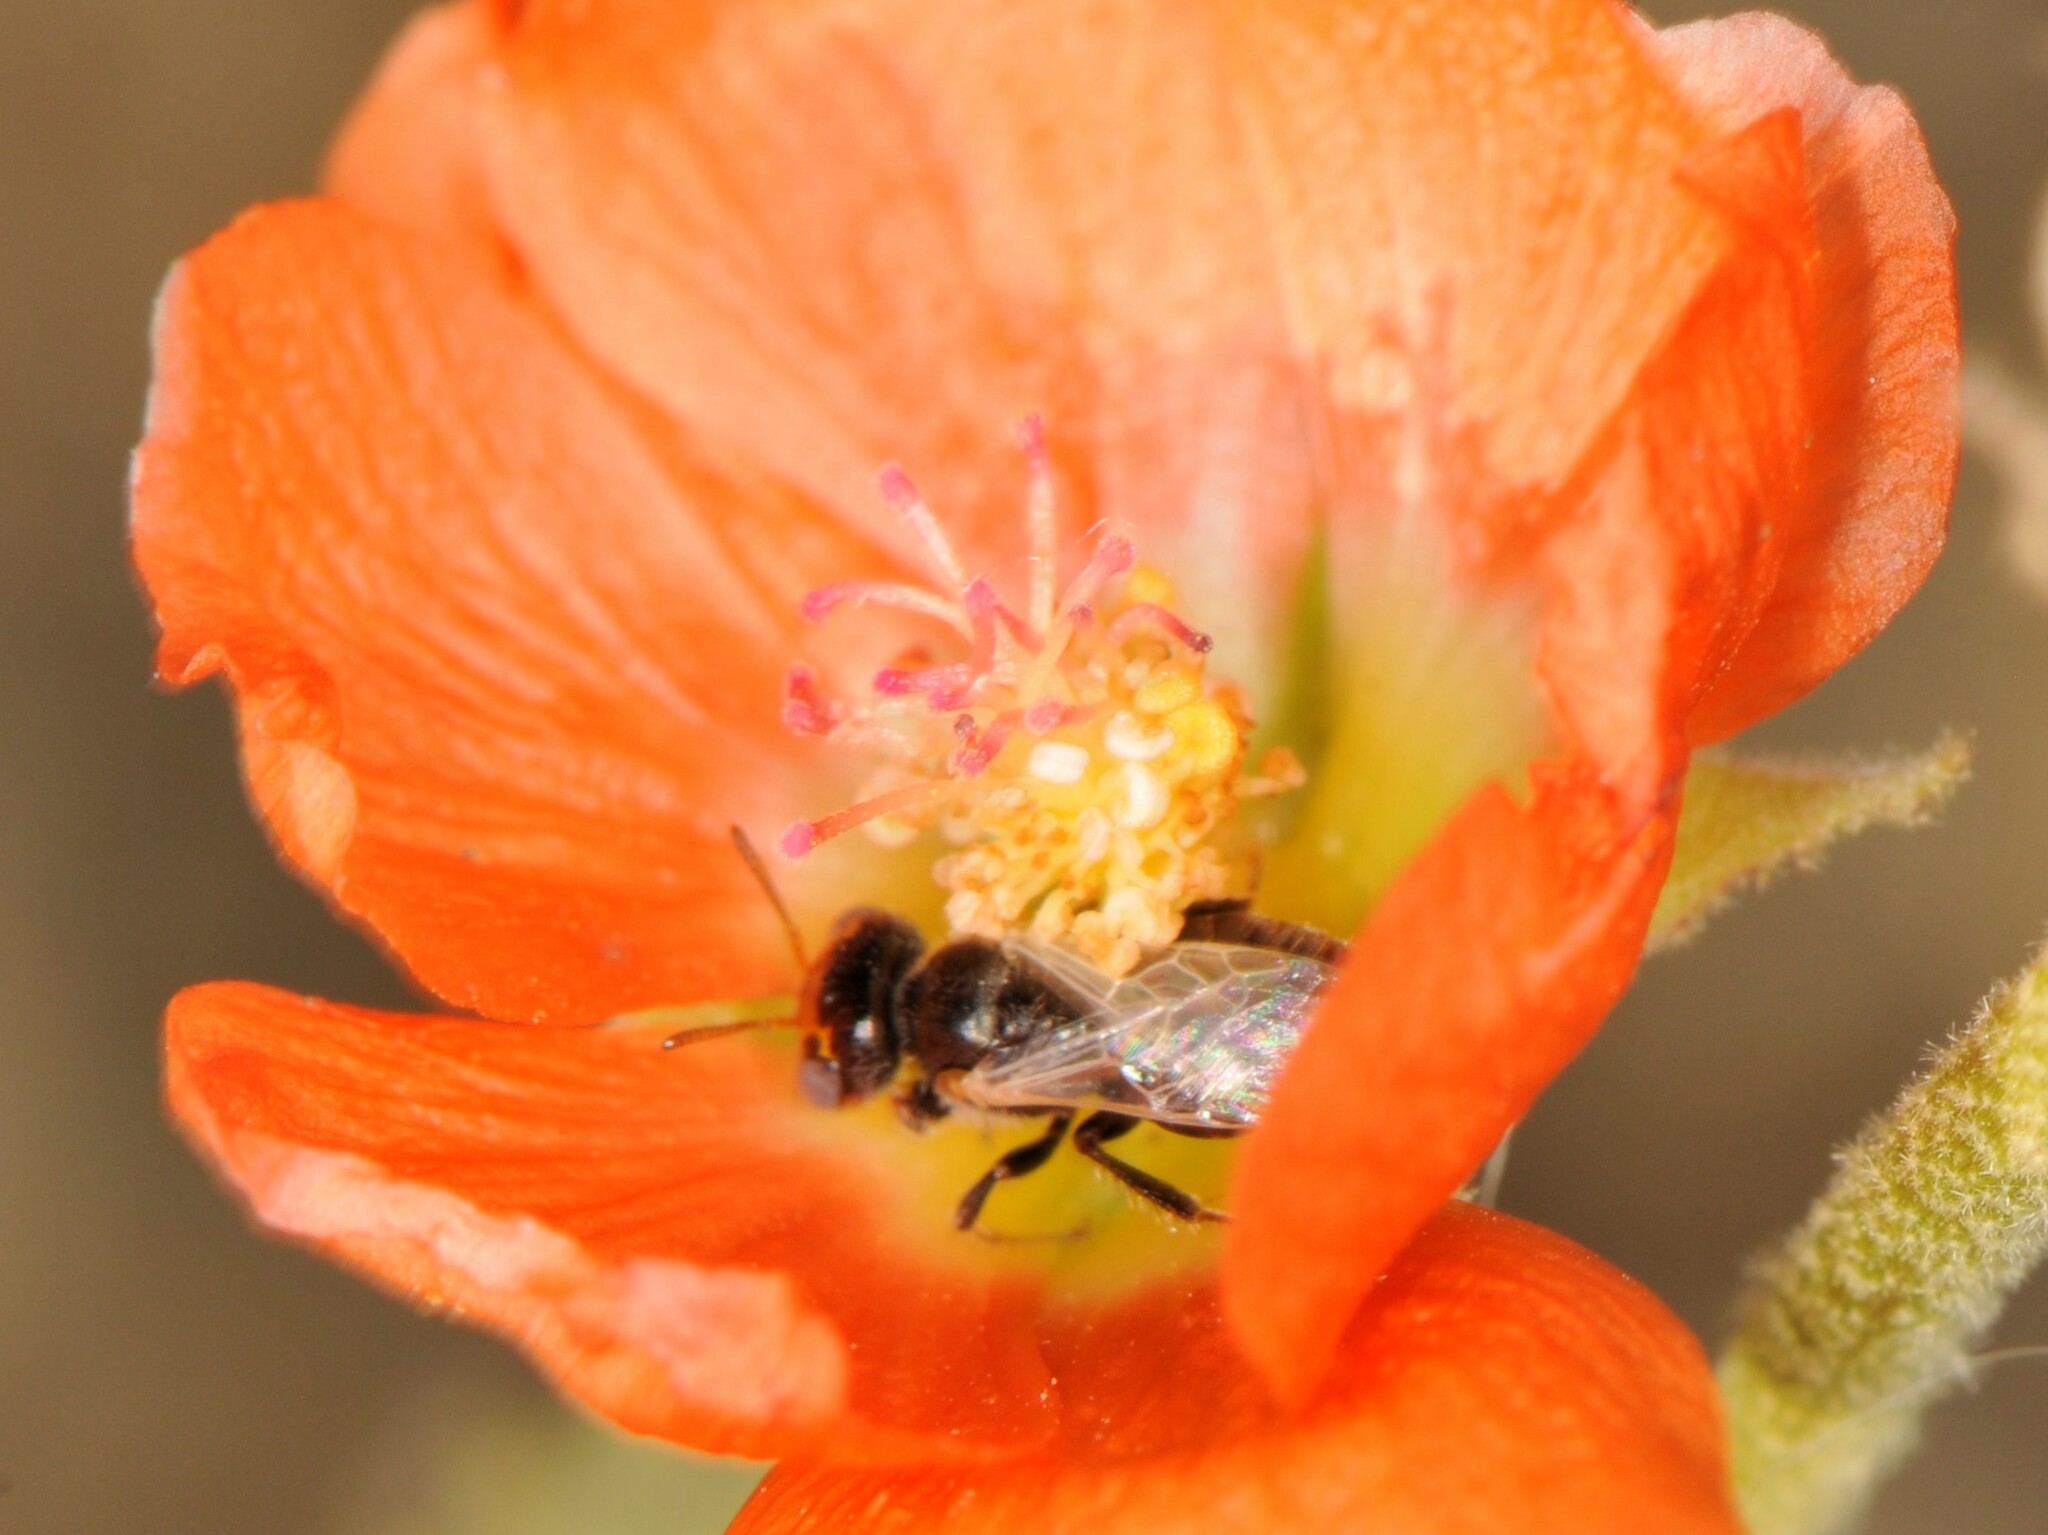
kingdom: Animalia
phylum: Arthropoda
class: Insecta
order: Hymenoptera
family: Andrenidae
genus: Macrotera
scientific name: Macrotera haplura
